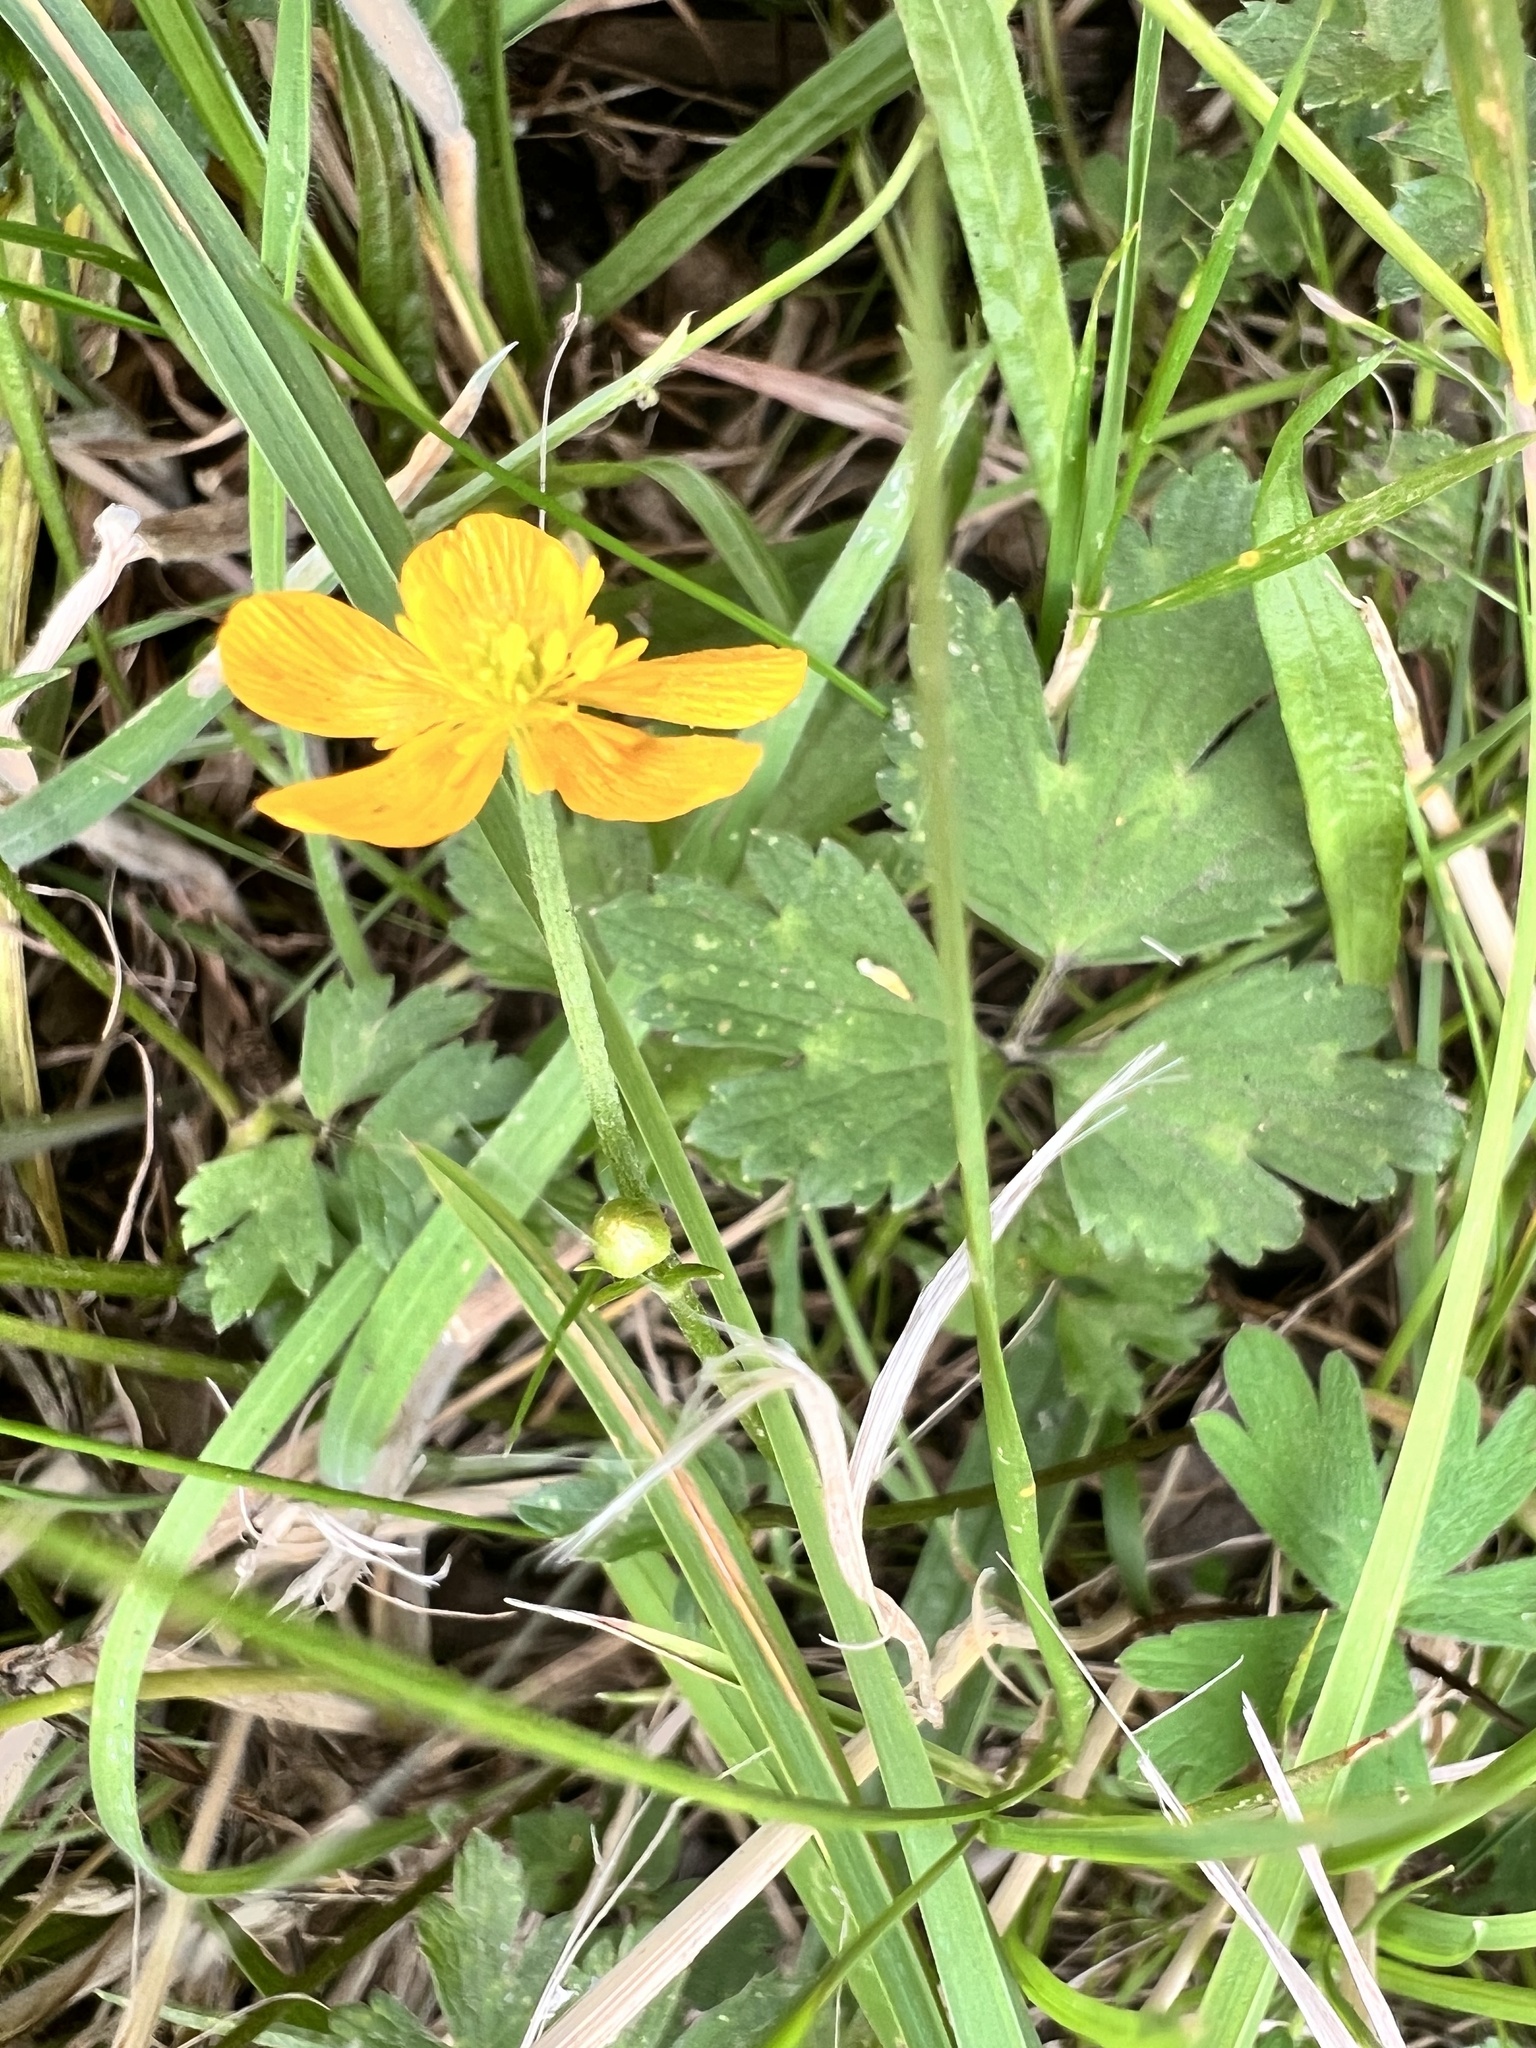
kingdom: Plantae
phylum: Tracheophyta
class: Magnoliopsida
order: Ranunculales
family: Ranunculaceae
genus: Ranunculus
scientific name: Ranunculus repens
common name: Creeping buttercup
